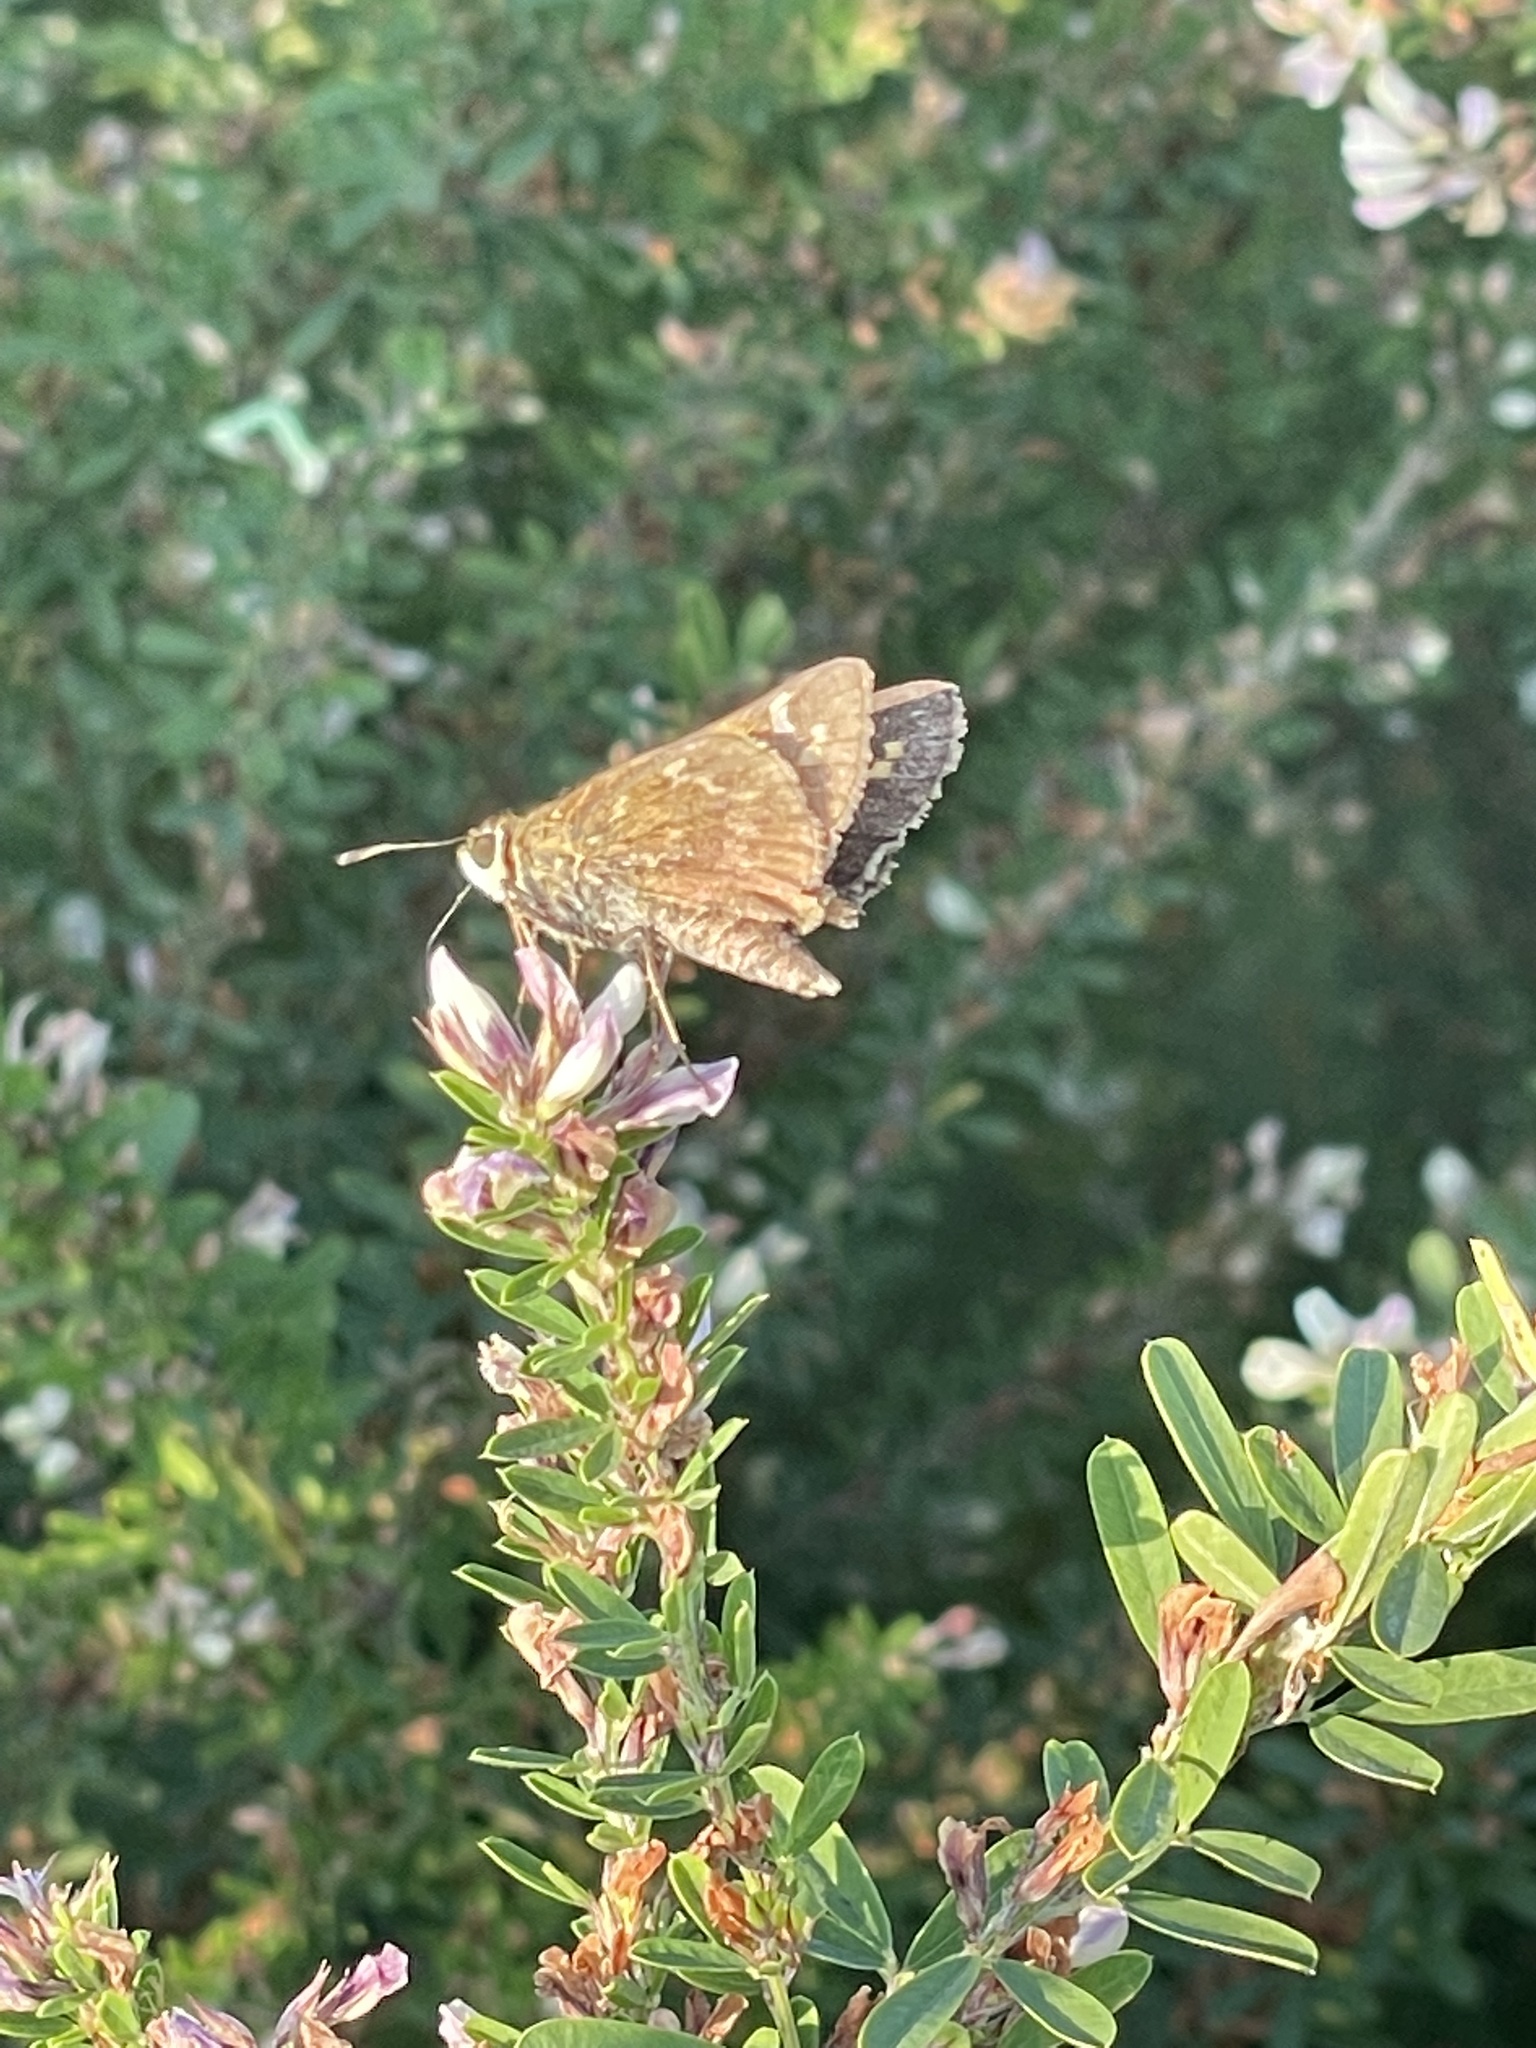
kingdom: Animalia
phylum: Arthropoda
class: Insecta
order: Lepidoptera
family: Hesperiidae
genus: Atalopedes
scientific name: Atalopedes
